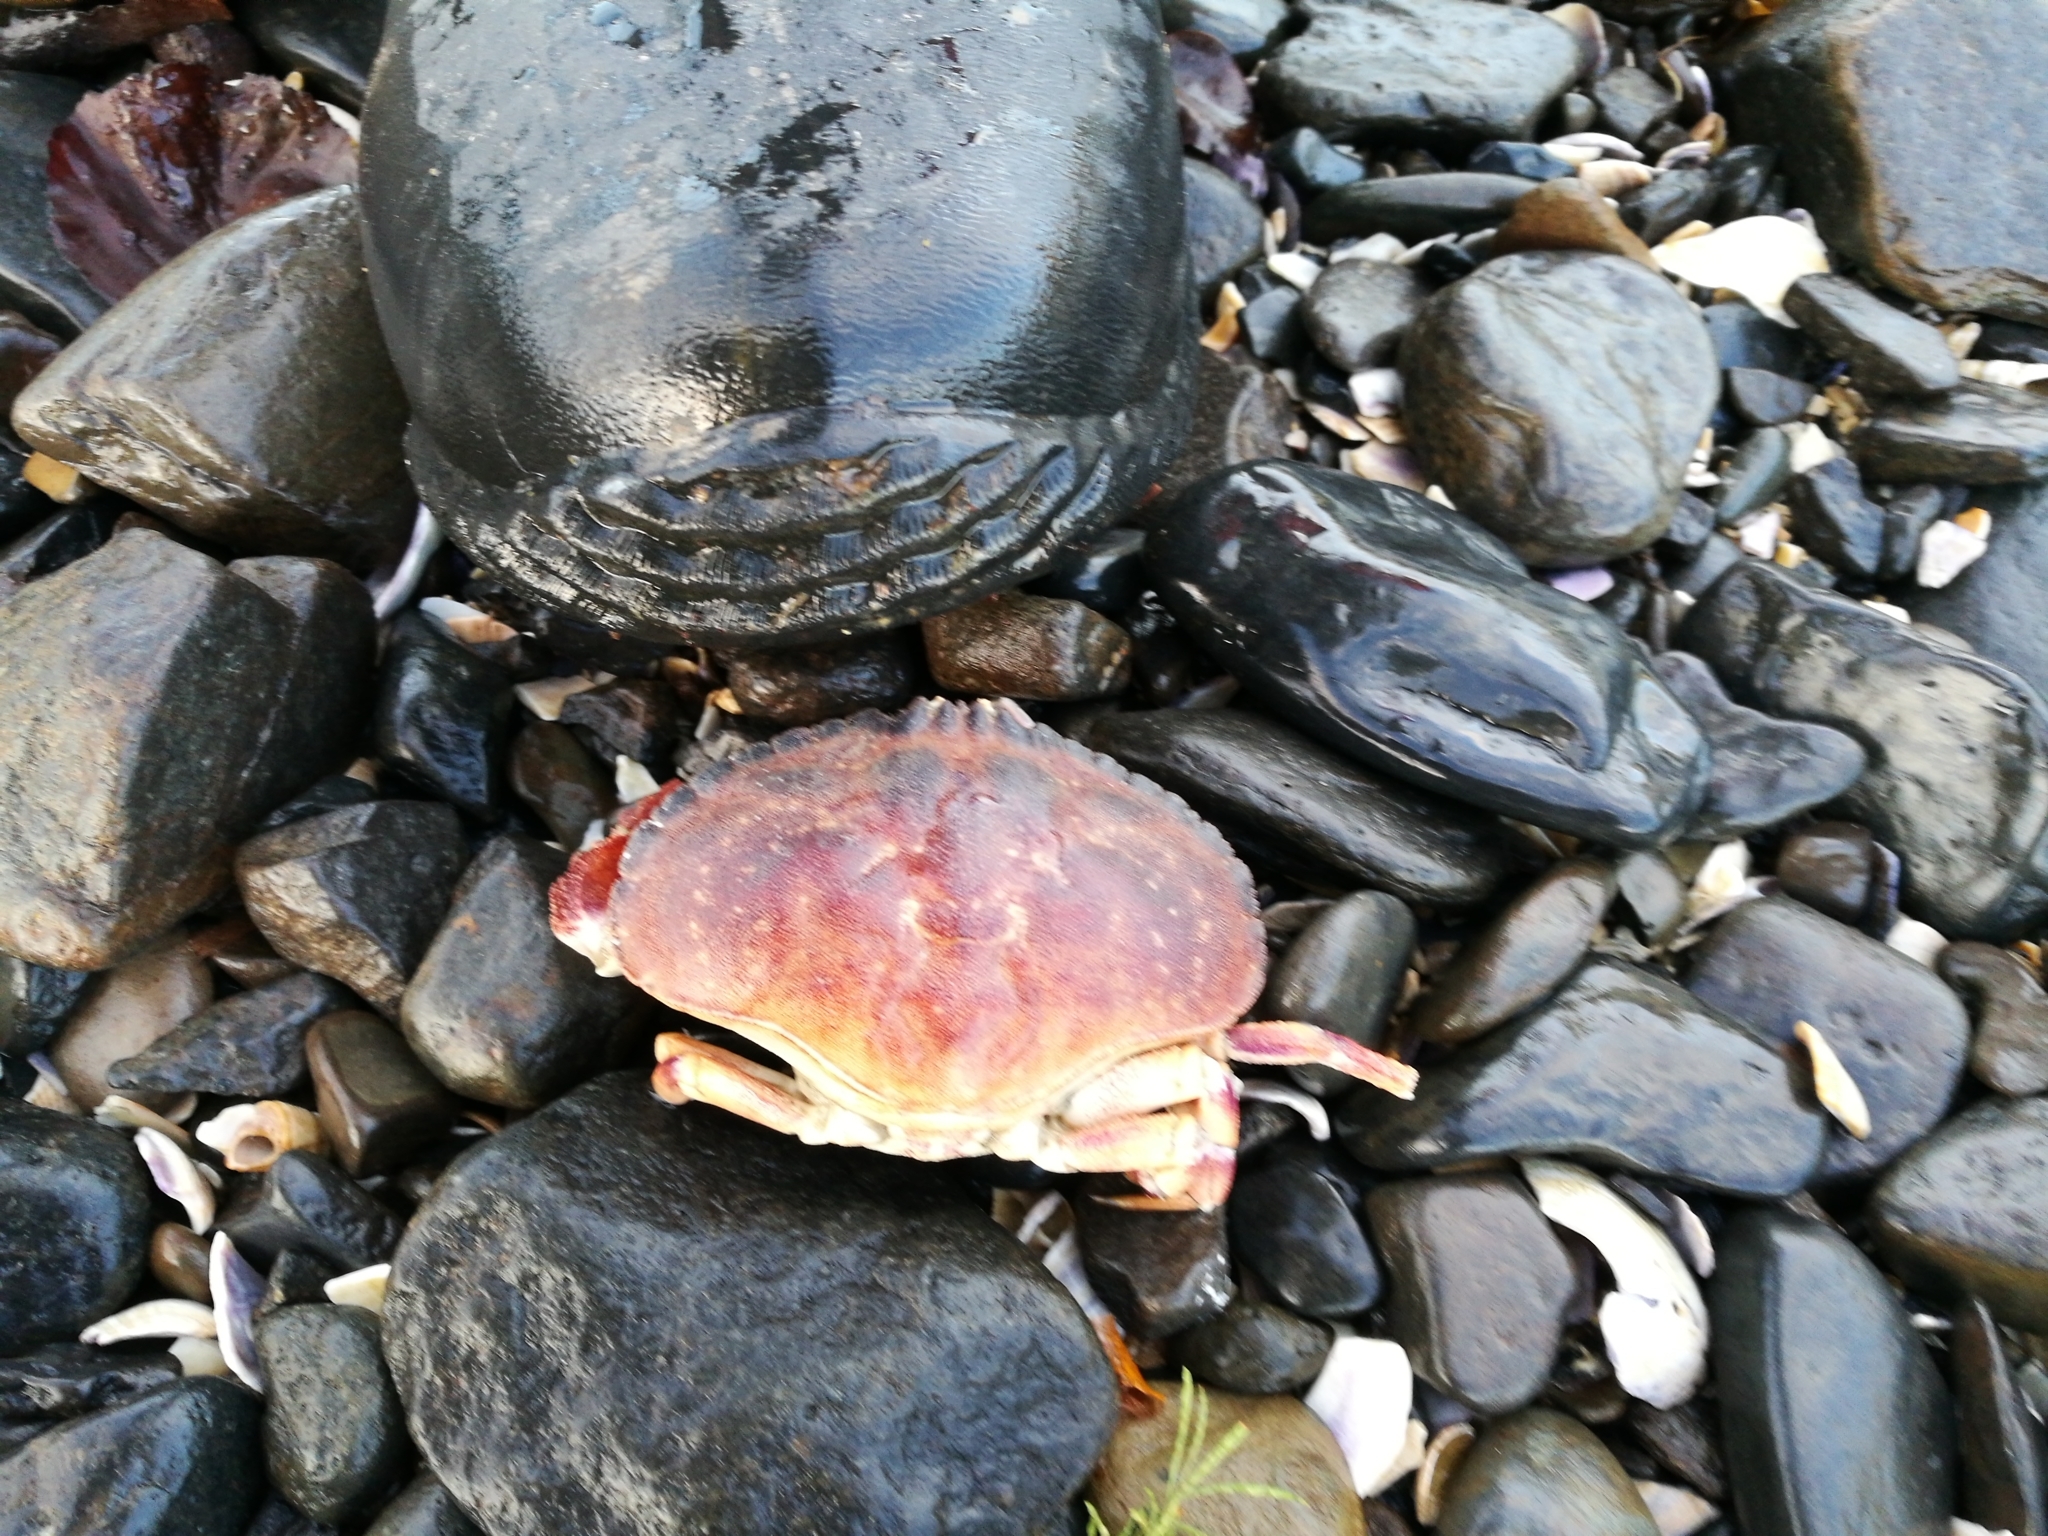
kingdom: Animalia
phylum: Arthropoda
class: Malacostraca
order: Decapoda
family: Cancridae
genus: Metacarcinus
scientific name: Metacarcinus novaezelandiae
